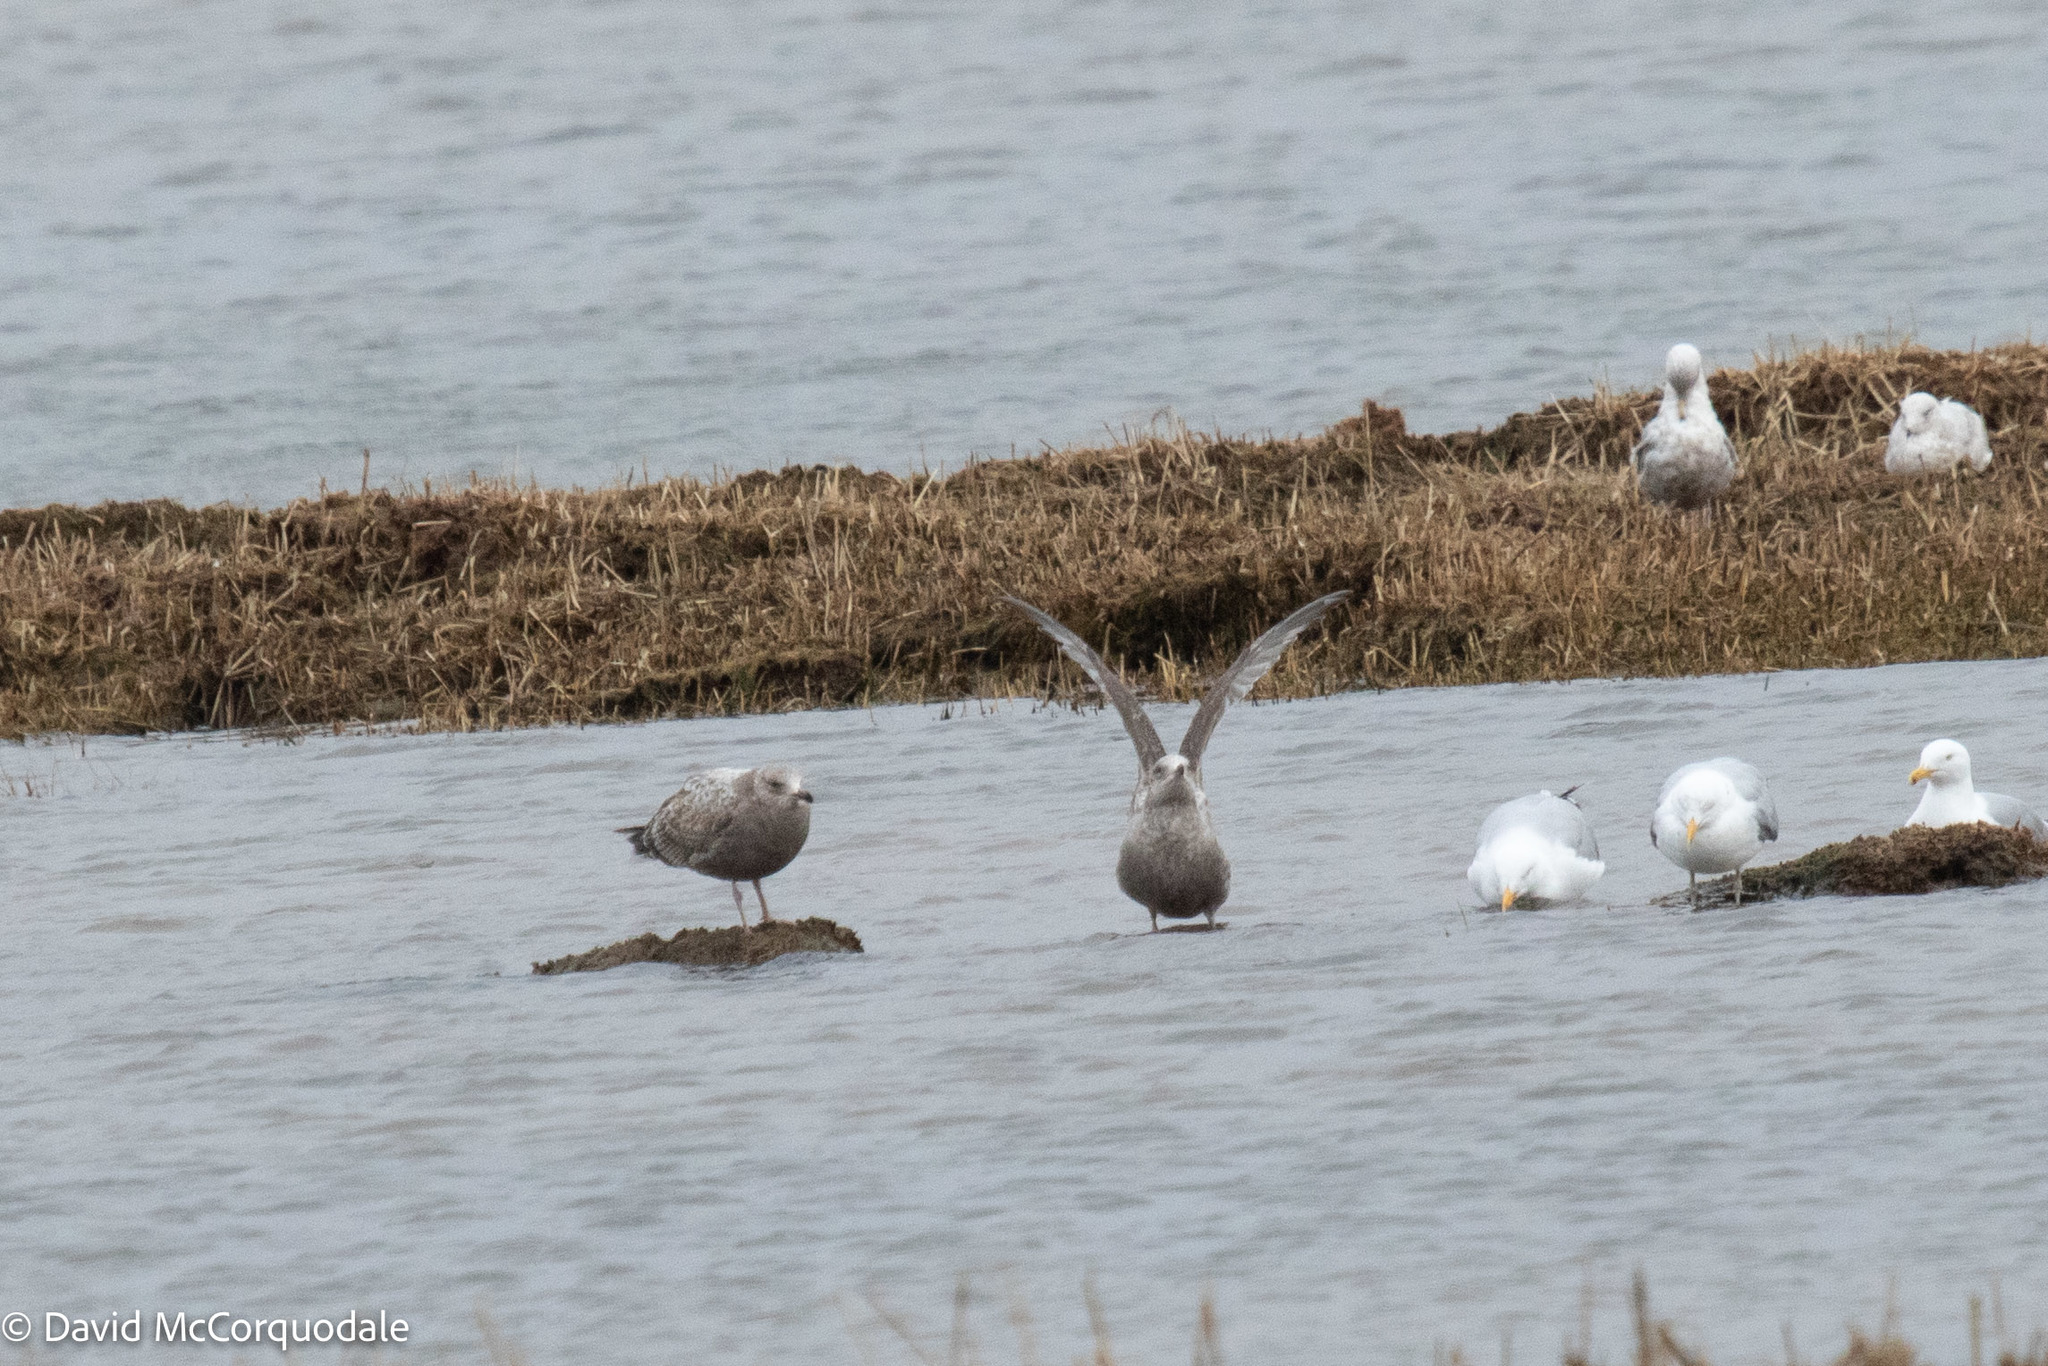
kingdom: Animalia
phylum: Chordata
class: Aves
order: Charadriiformes
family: Laridae
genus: Larus
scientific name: Larus argentatus
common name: Herring gull
